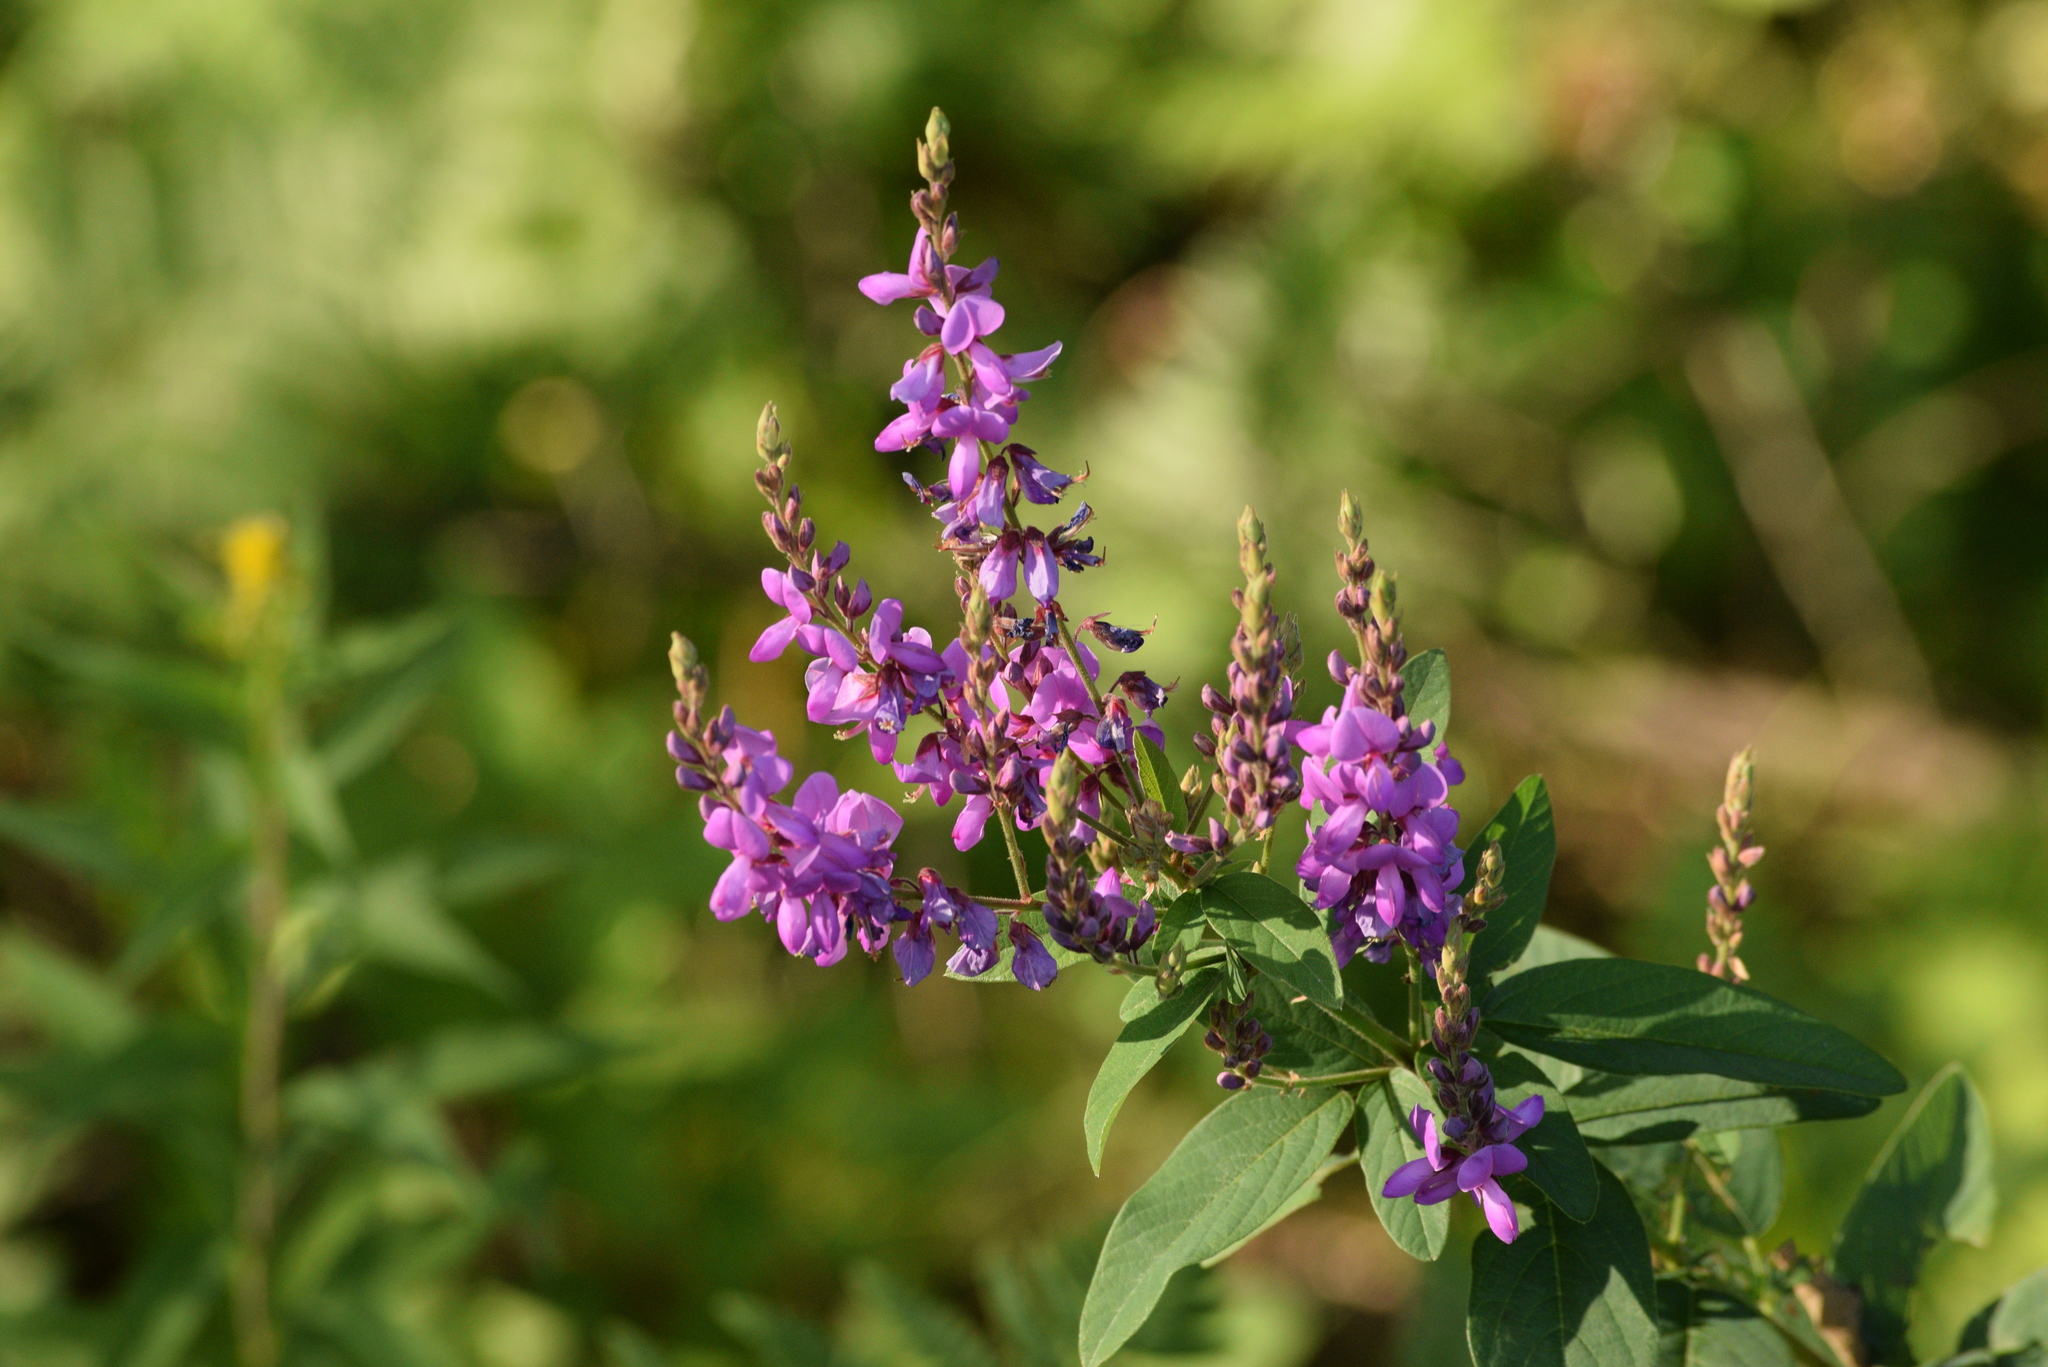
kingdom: Plantae
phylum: Tracheophyta
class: Magnoliopsida
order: Fabales
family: Fabaceae
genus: Desmodium
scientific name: Desmodium canadense
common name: Canada tick-trefoil
